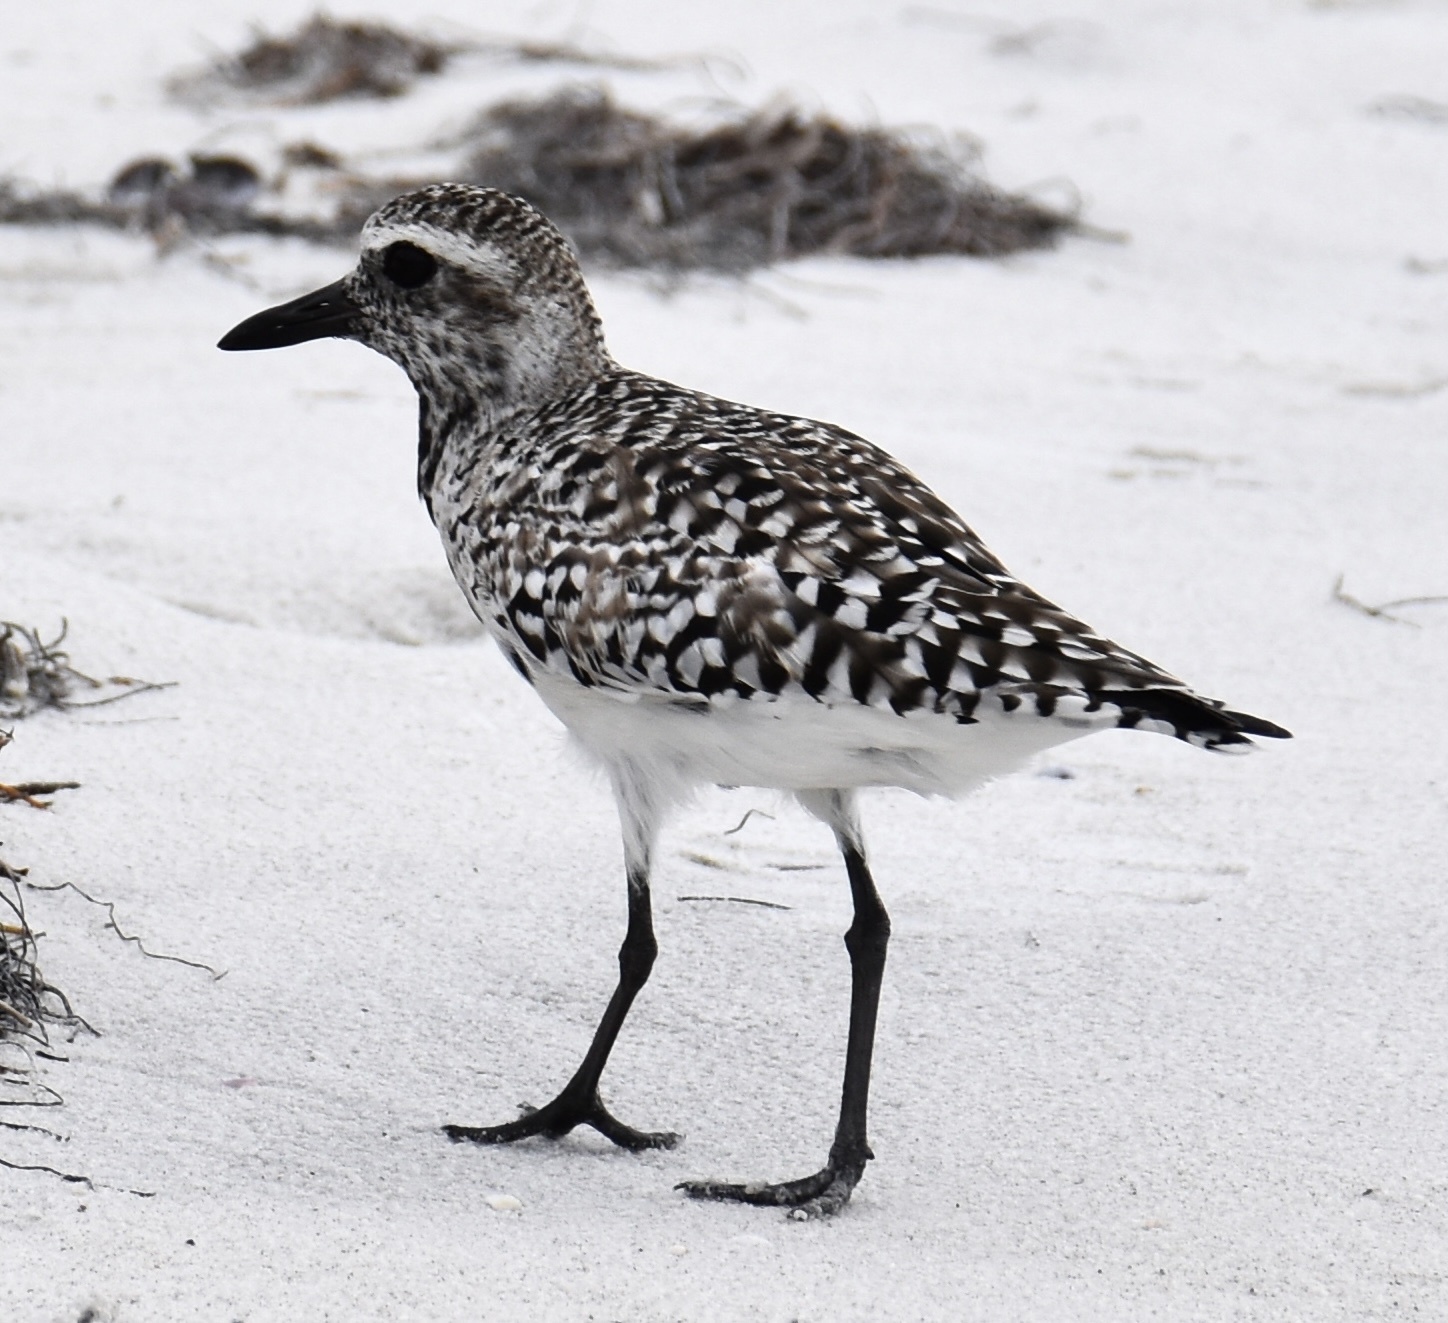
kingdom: Animalia
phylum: Chordata
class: Aves
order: Charadriiformes
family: Charadriidae
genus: Pluvialis
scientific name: Pluvialis squatarola
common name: Grey plover
